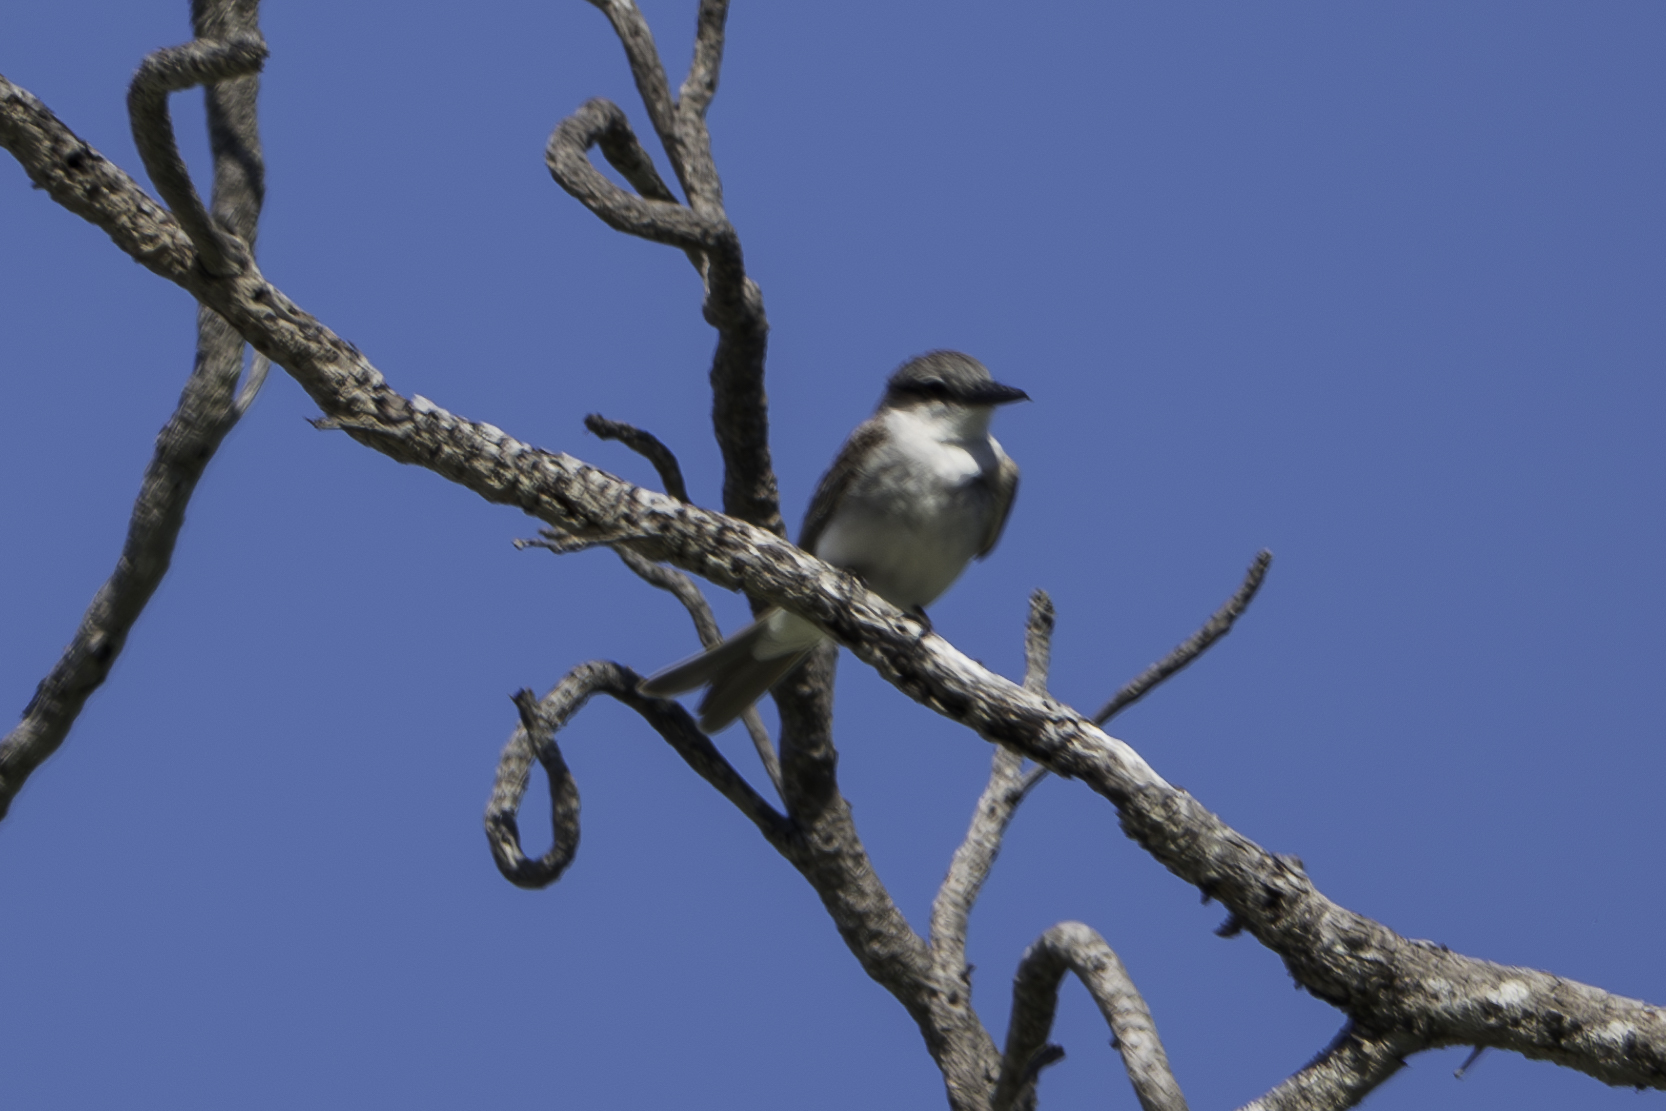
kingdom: Animalia
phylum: Chordata
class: Aves
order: Passeriformes
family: Tyrannidae
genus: Tyrannus
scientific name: Tyrannus dominicensis
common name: Gray kingbird
